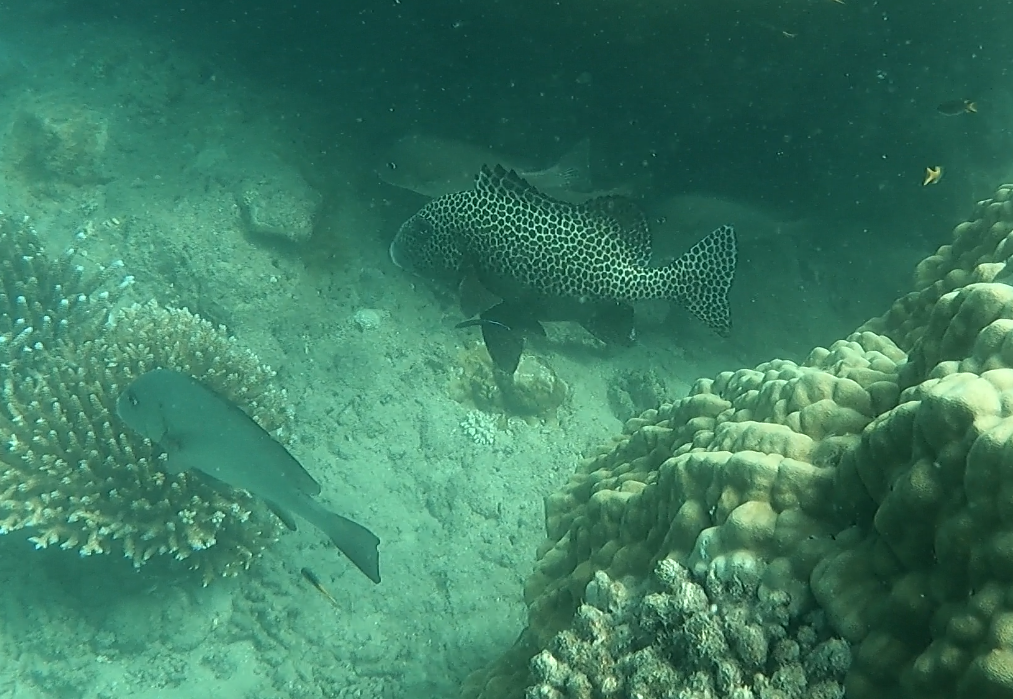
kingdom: Animalia
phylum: Chordata
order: Perciformes
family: Haemulidae
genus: Plectorhinchus
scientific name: Plectorhinchus chaetodonoides
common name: Harlequin sweetlips
